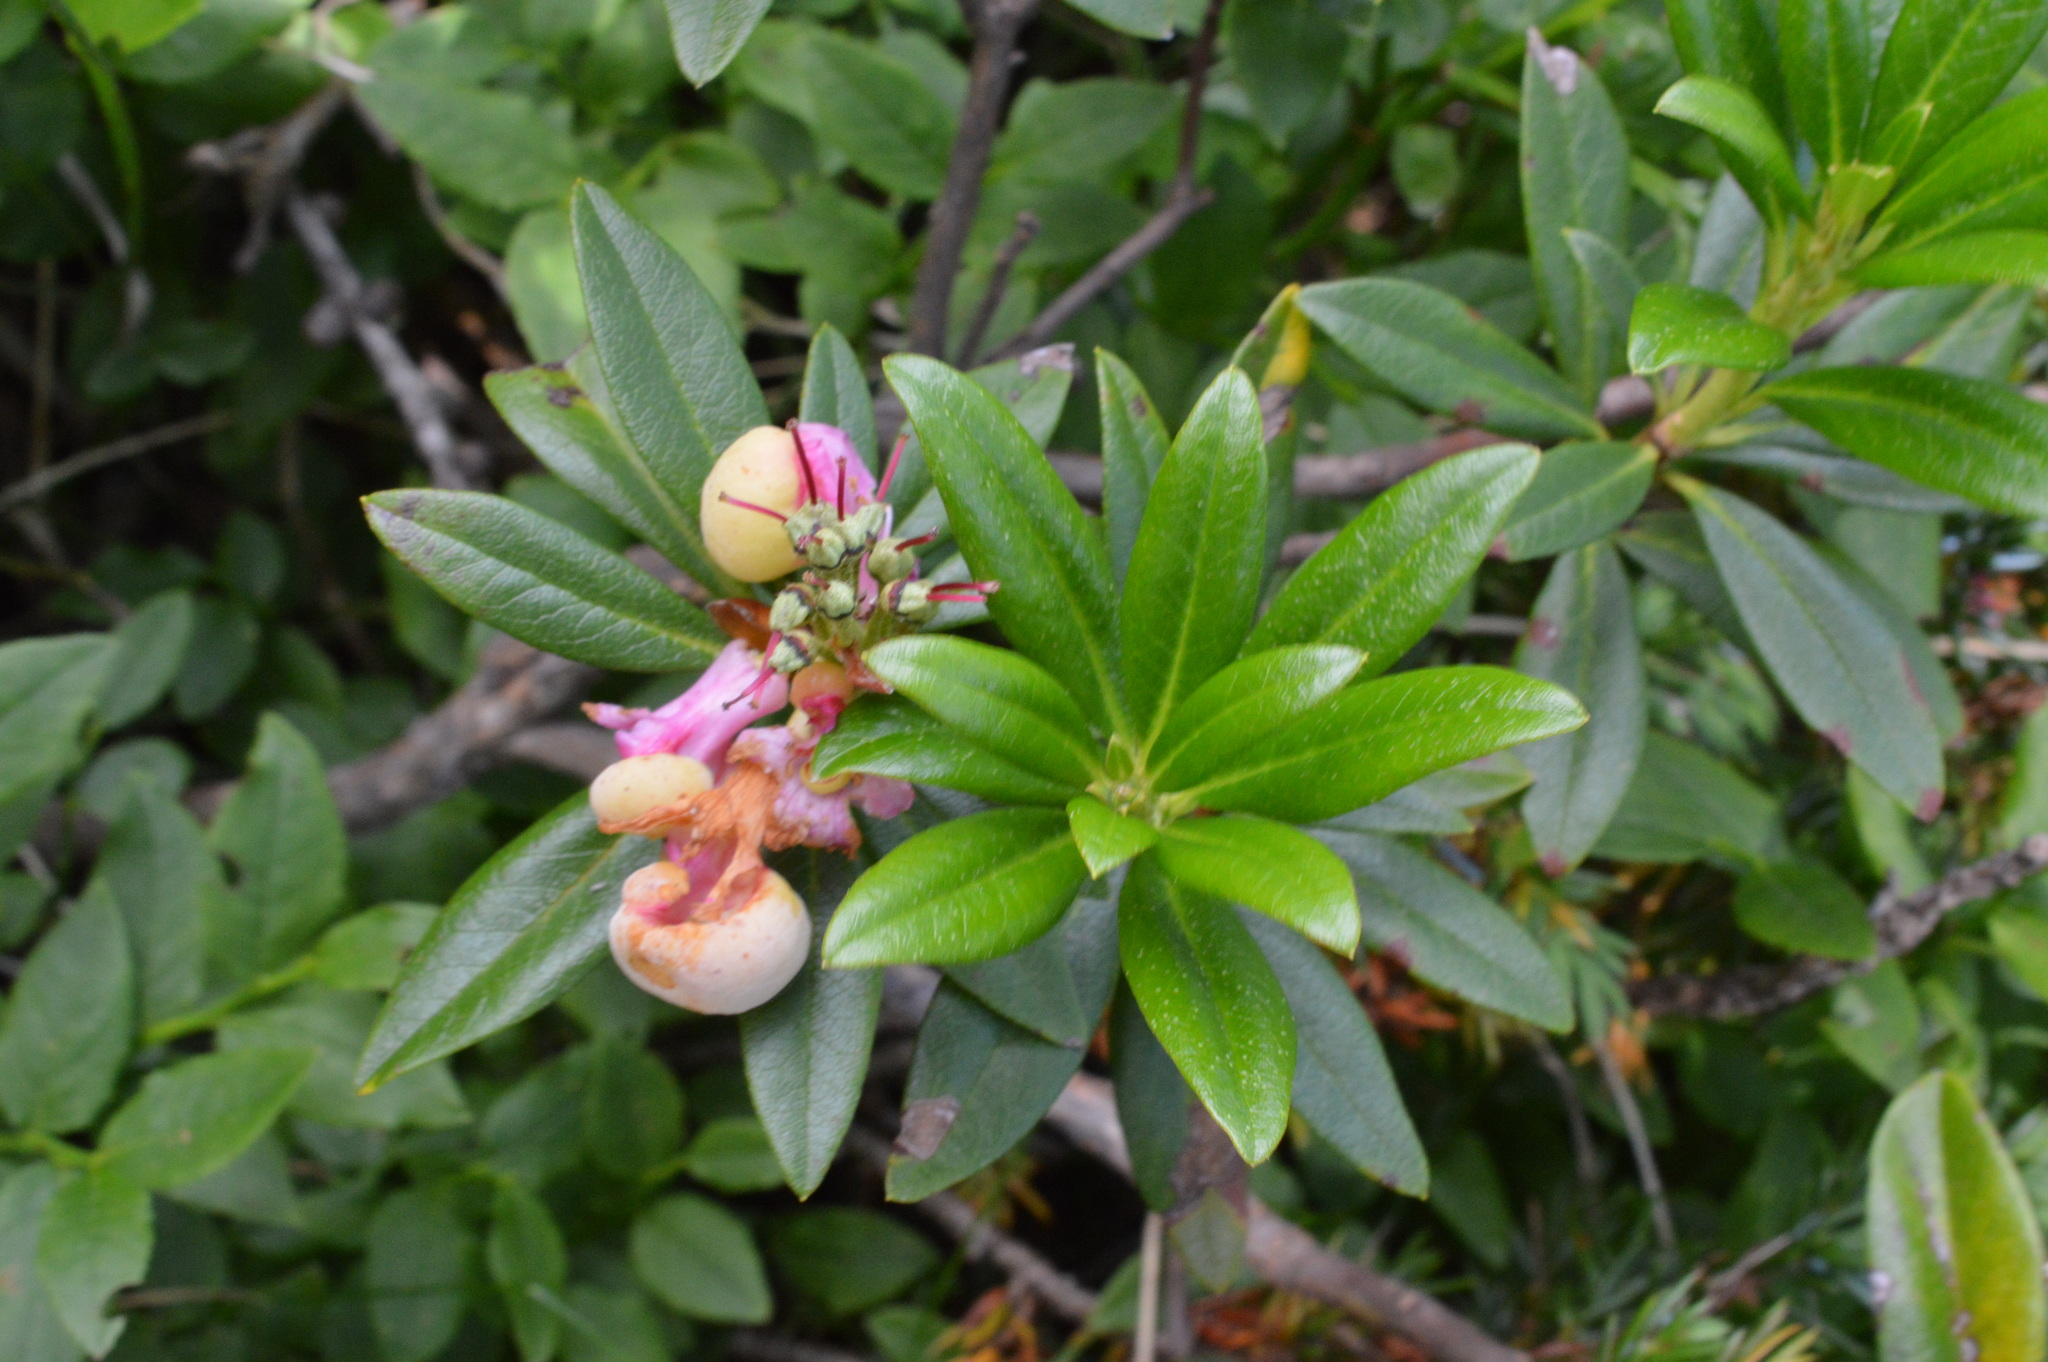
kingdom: Fungi
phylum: Basidiomycota
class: Exobasidiomycetes
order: Exobasidiales
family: Exobasidiaceae
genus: Exobasidium
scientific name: Exobasidium rhododendri
